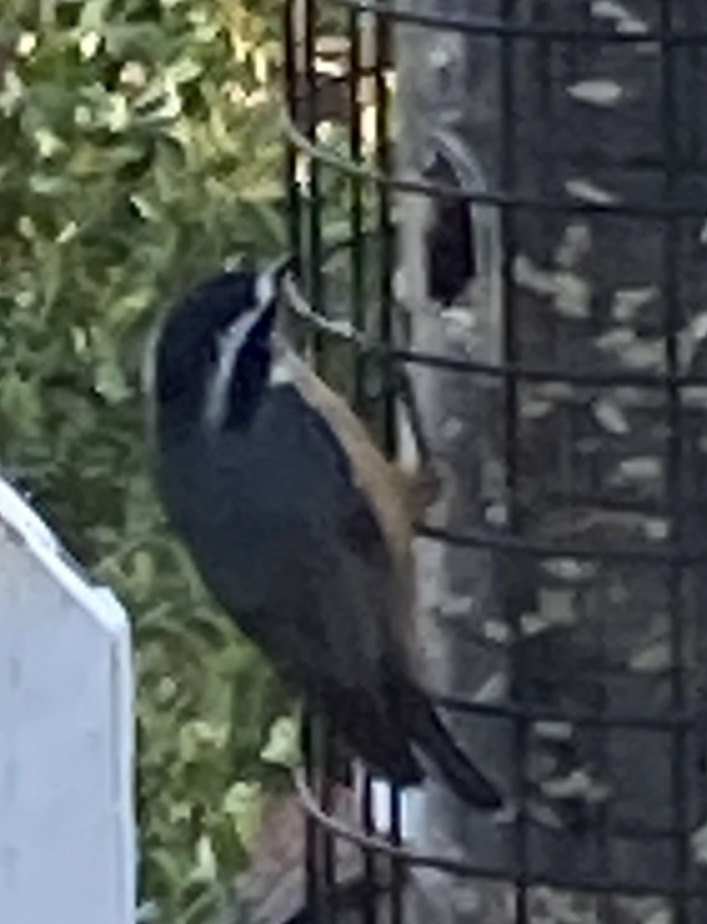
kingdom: Animalia
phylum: Chordata
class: Aves
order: Passeriformes
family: Sittidae
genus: Sitta
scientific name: Sitta canadensis
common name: Red-breasted nuthatch
